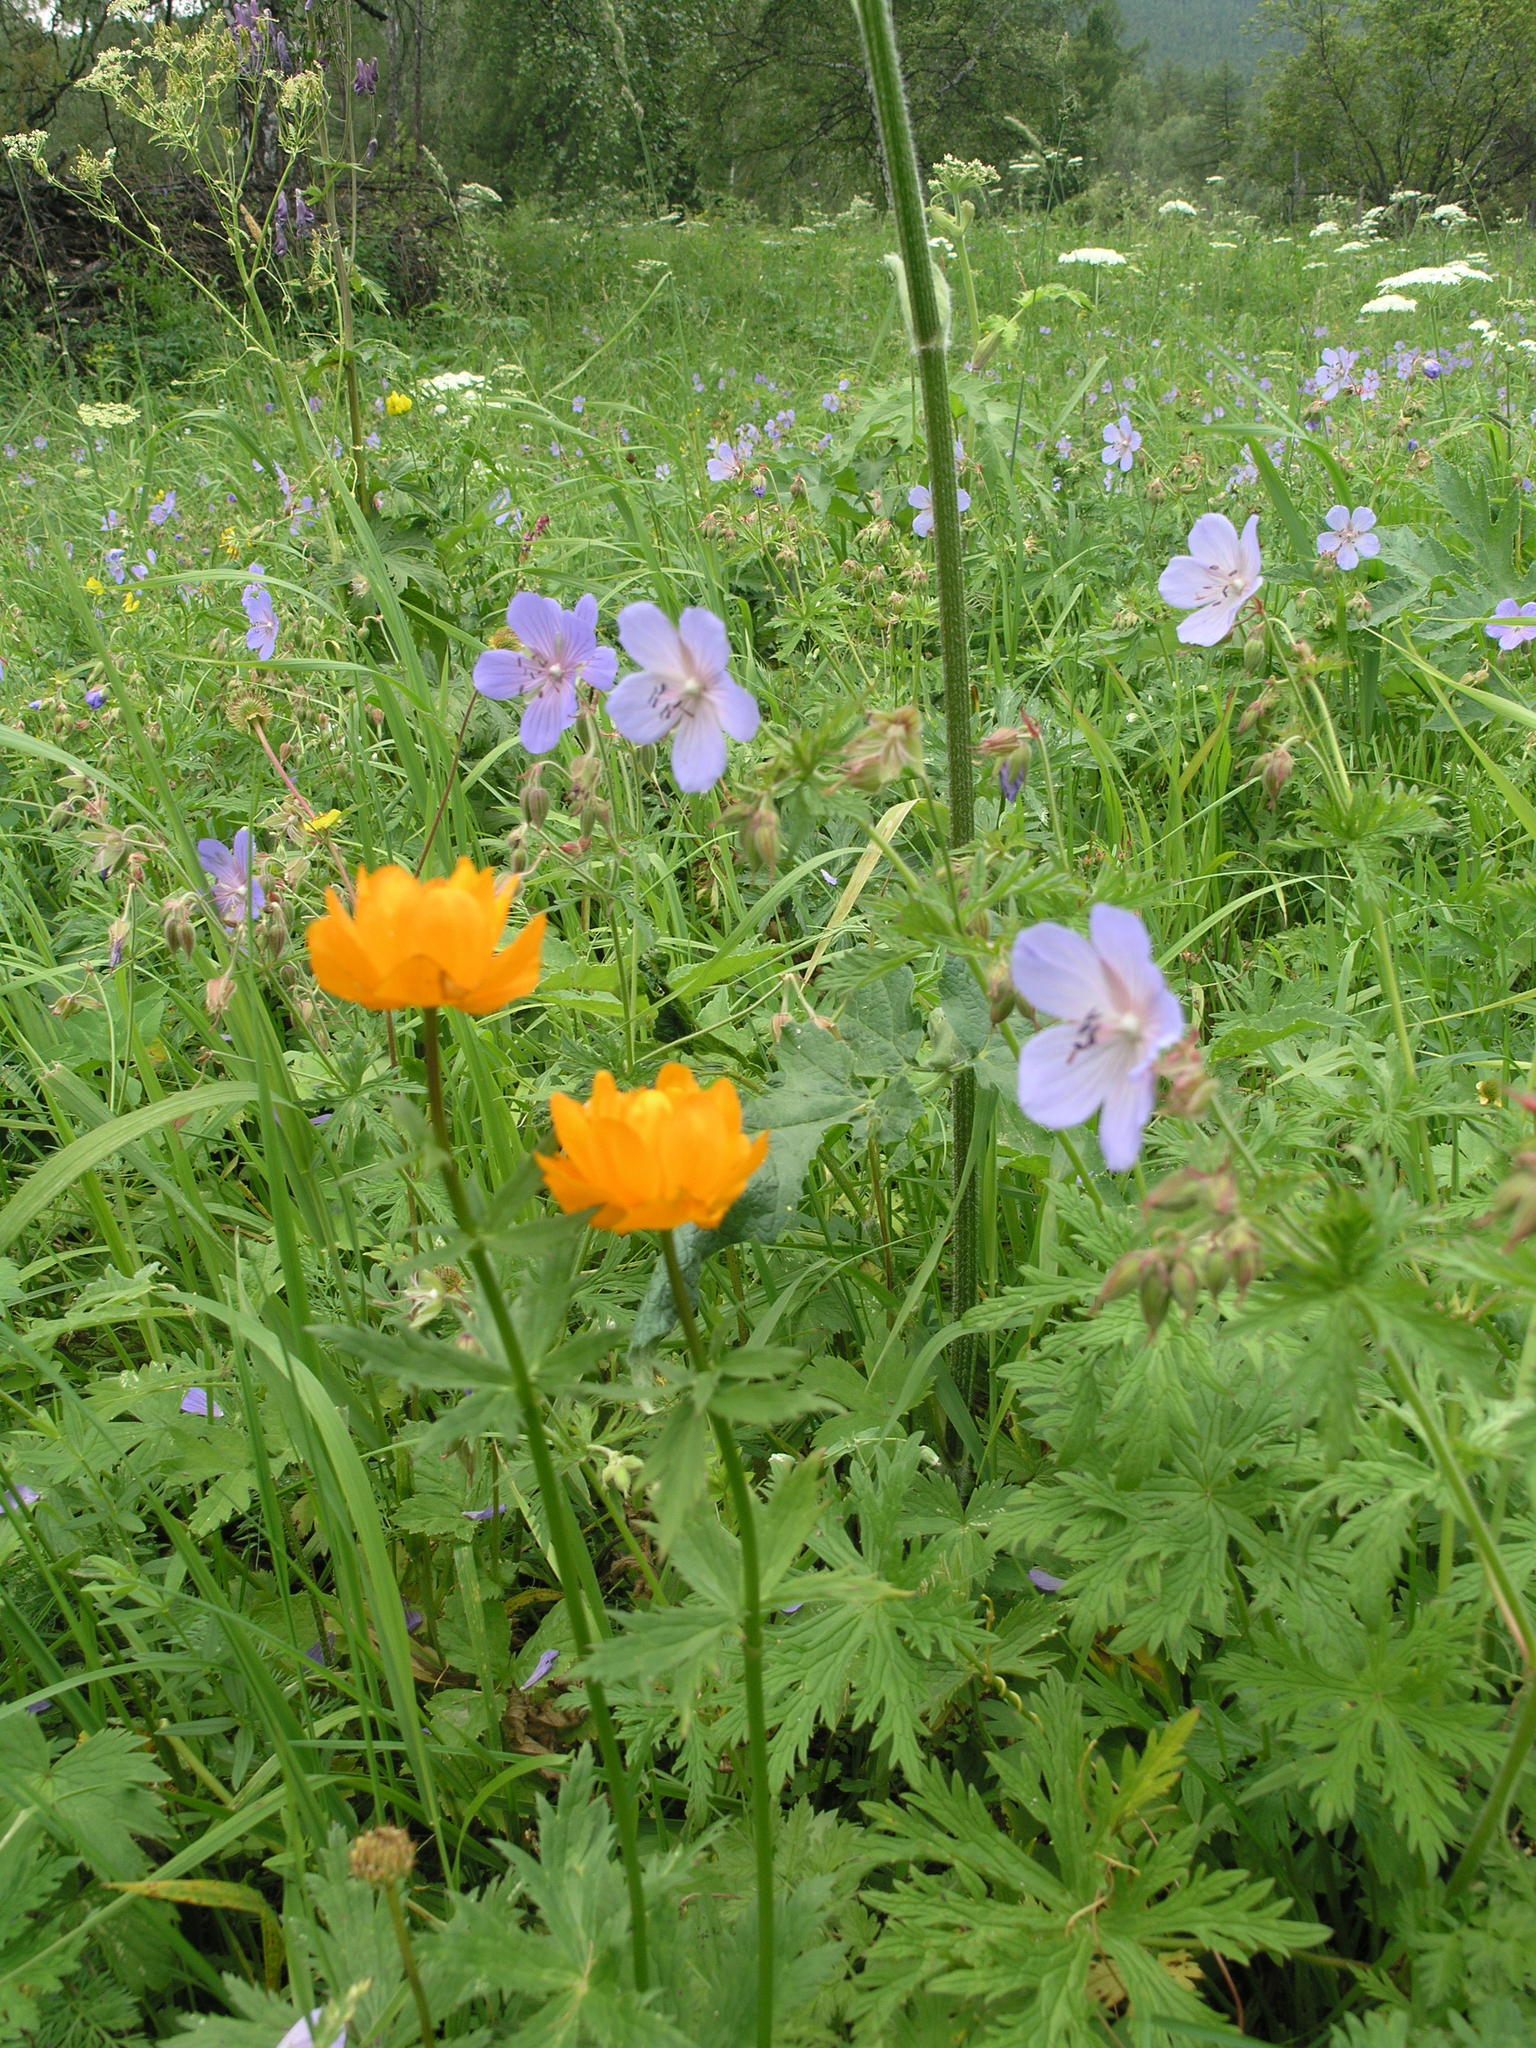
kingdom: Plantae
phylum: Tracheophyta
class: Magnoliopsida
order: Ranunculales
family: Ranunculaceae
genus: Trollius
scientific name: Trollius asiaticus
